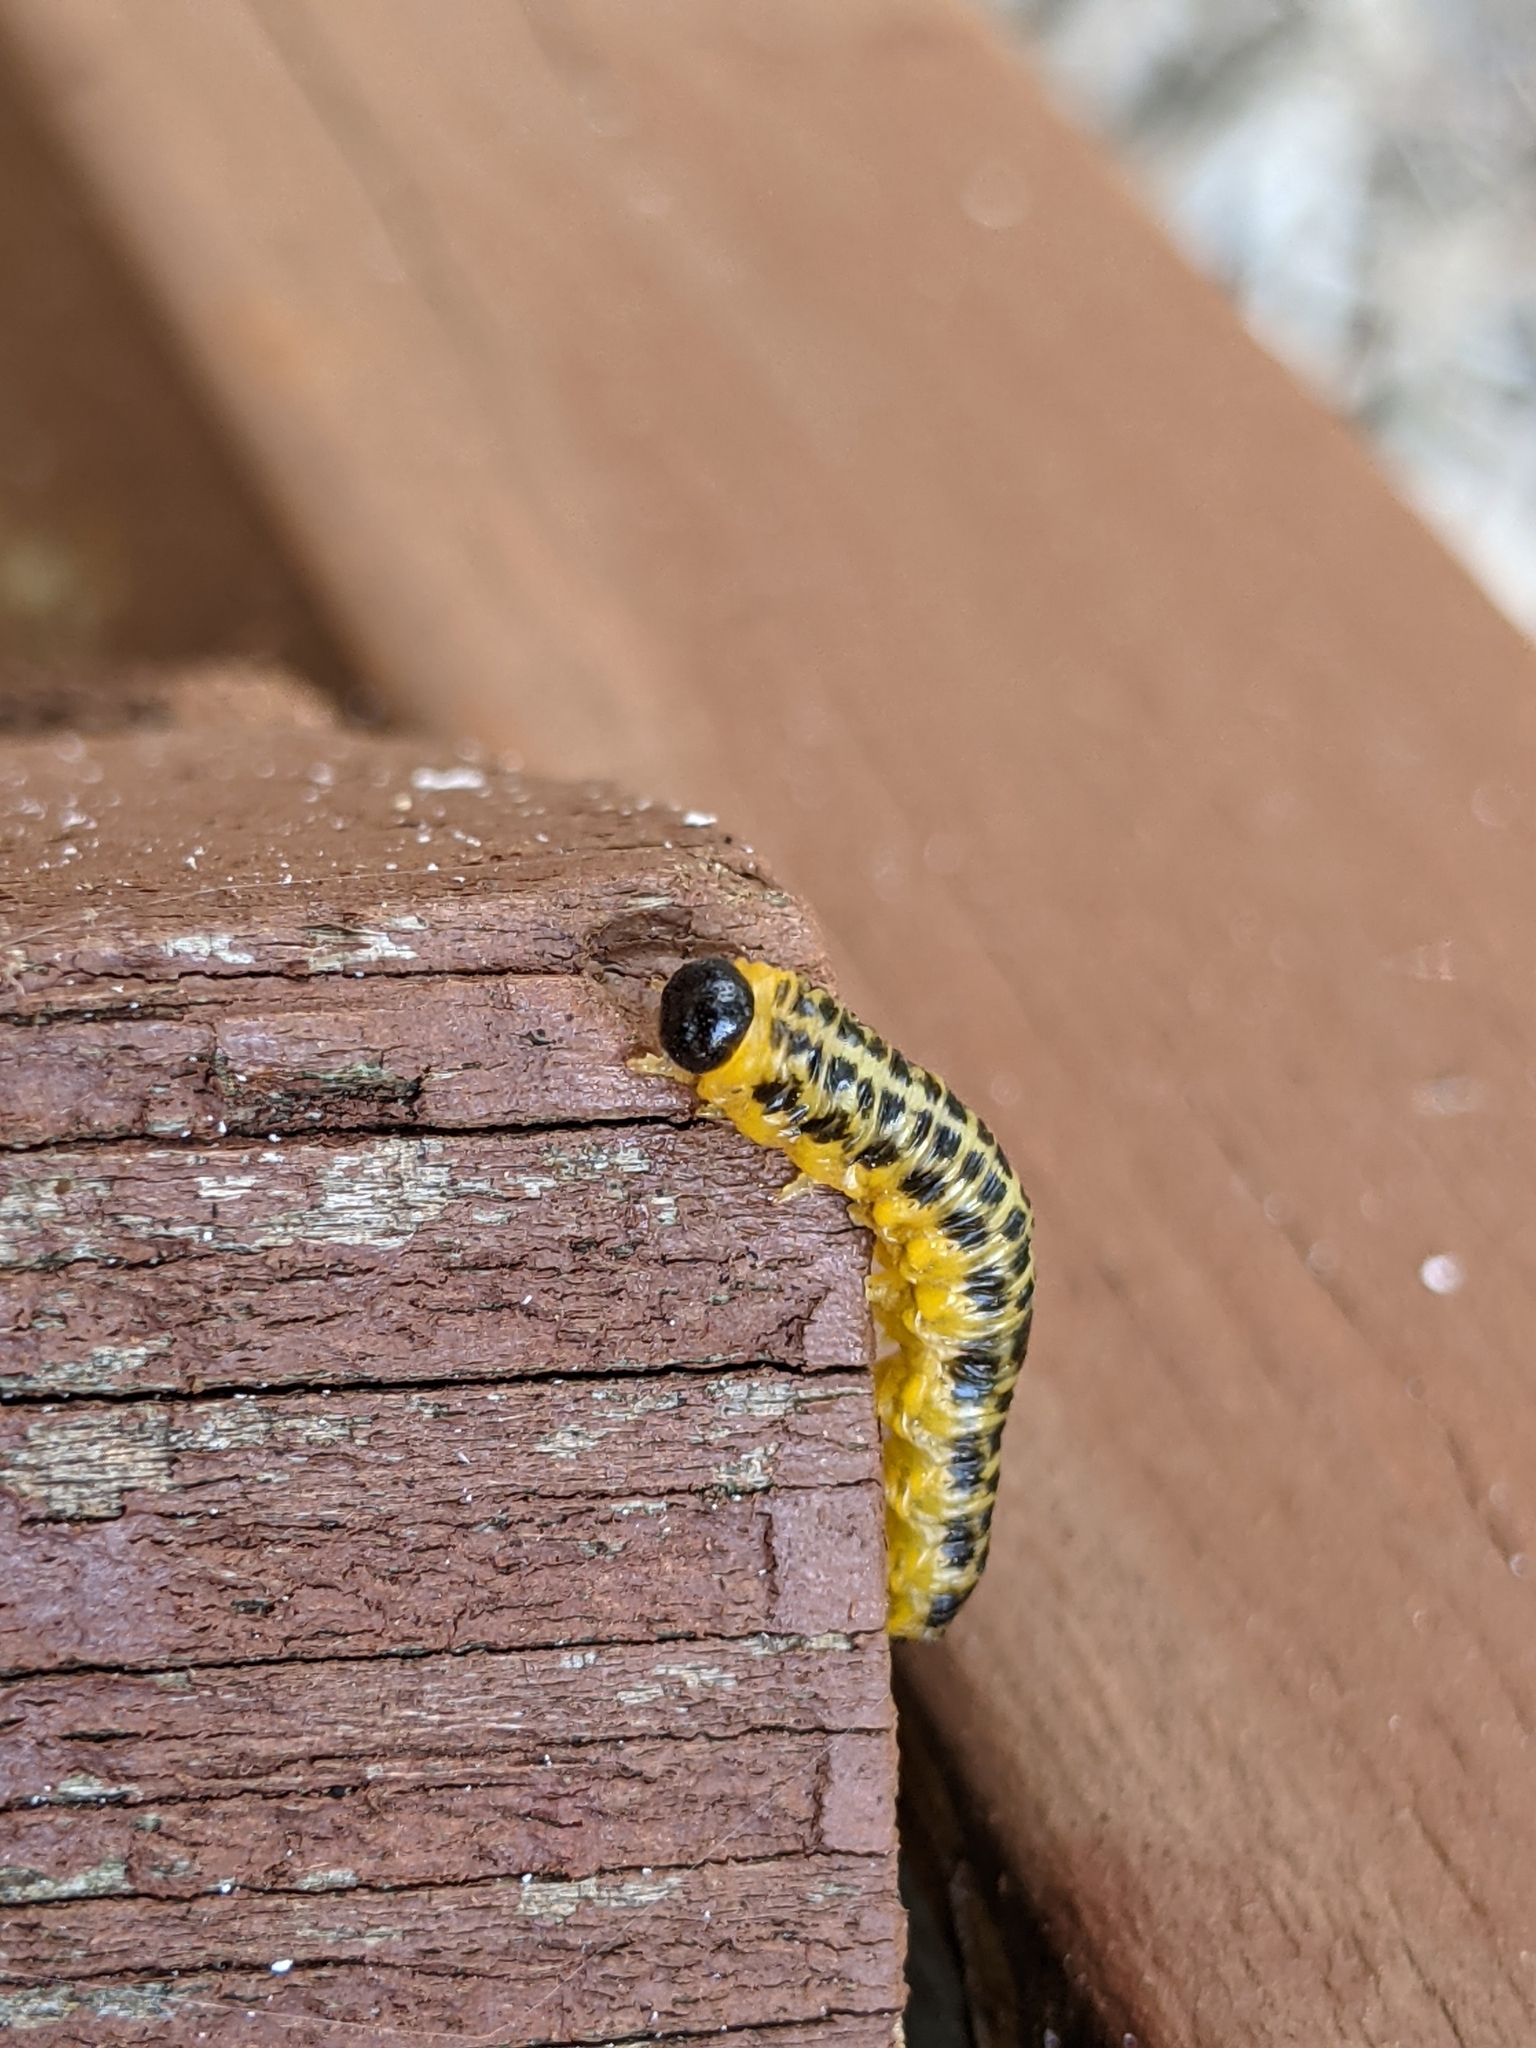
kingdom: Animalia
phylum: Arthropoda
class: Insecta
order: Hymenoptera
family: Tenthredinidae
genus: Macremphytus
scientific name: Macremphytus testaceus
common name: Dogwood sawfly
